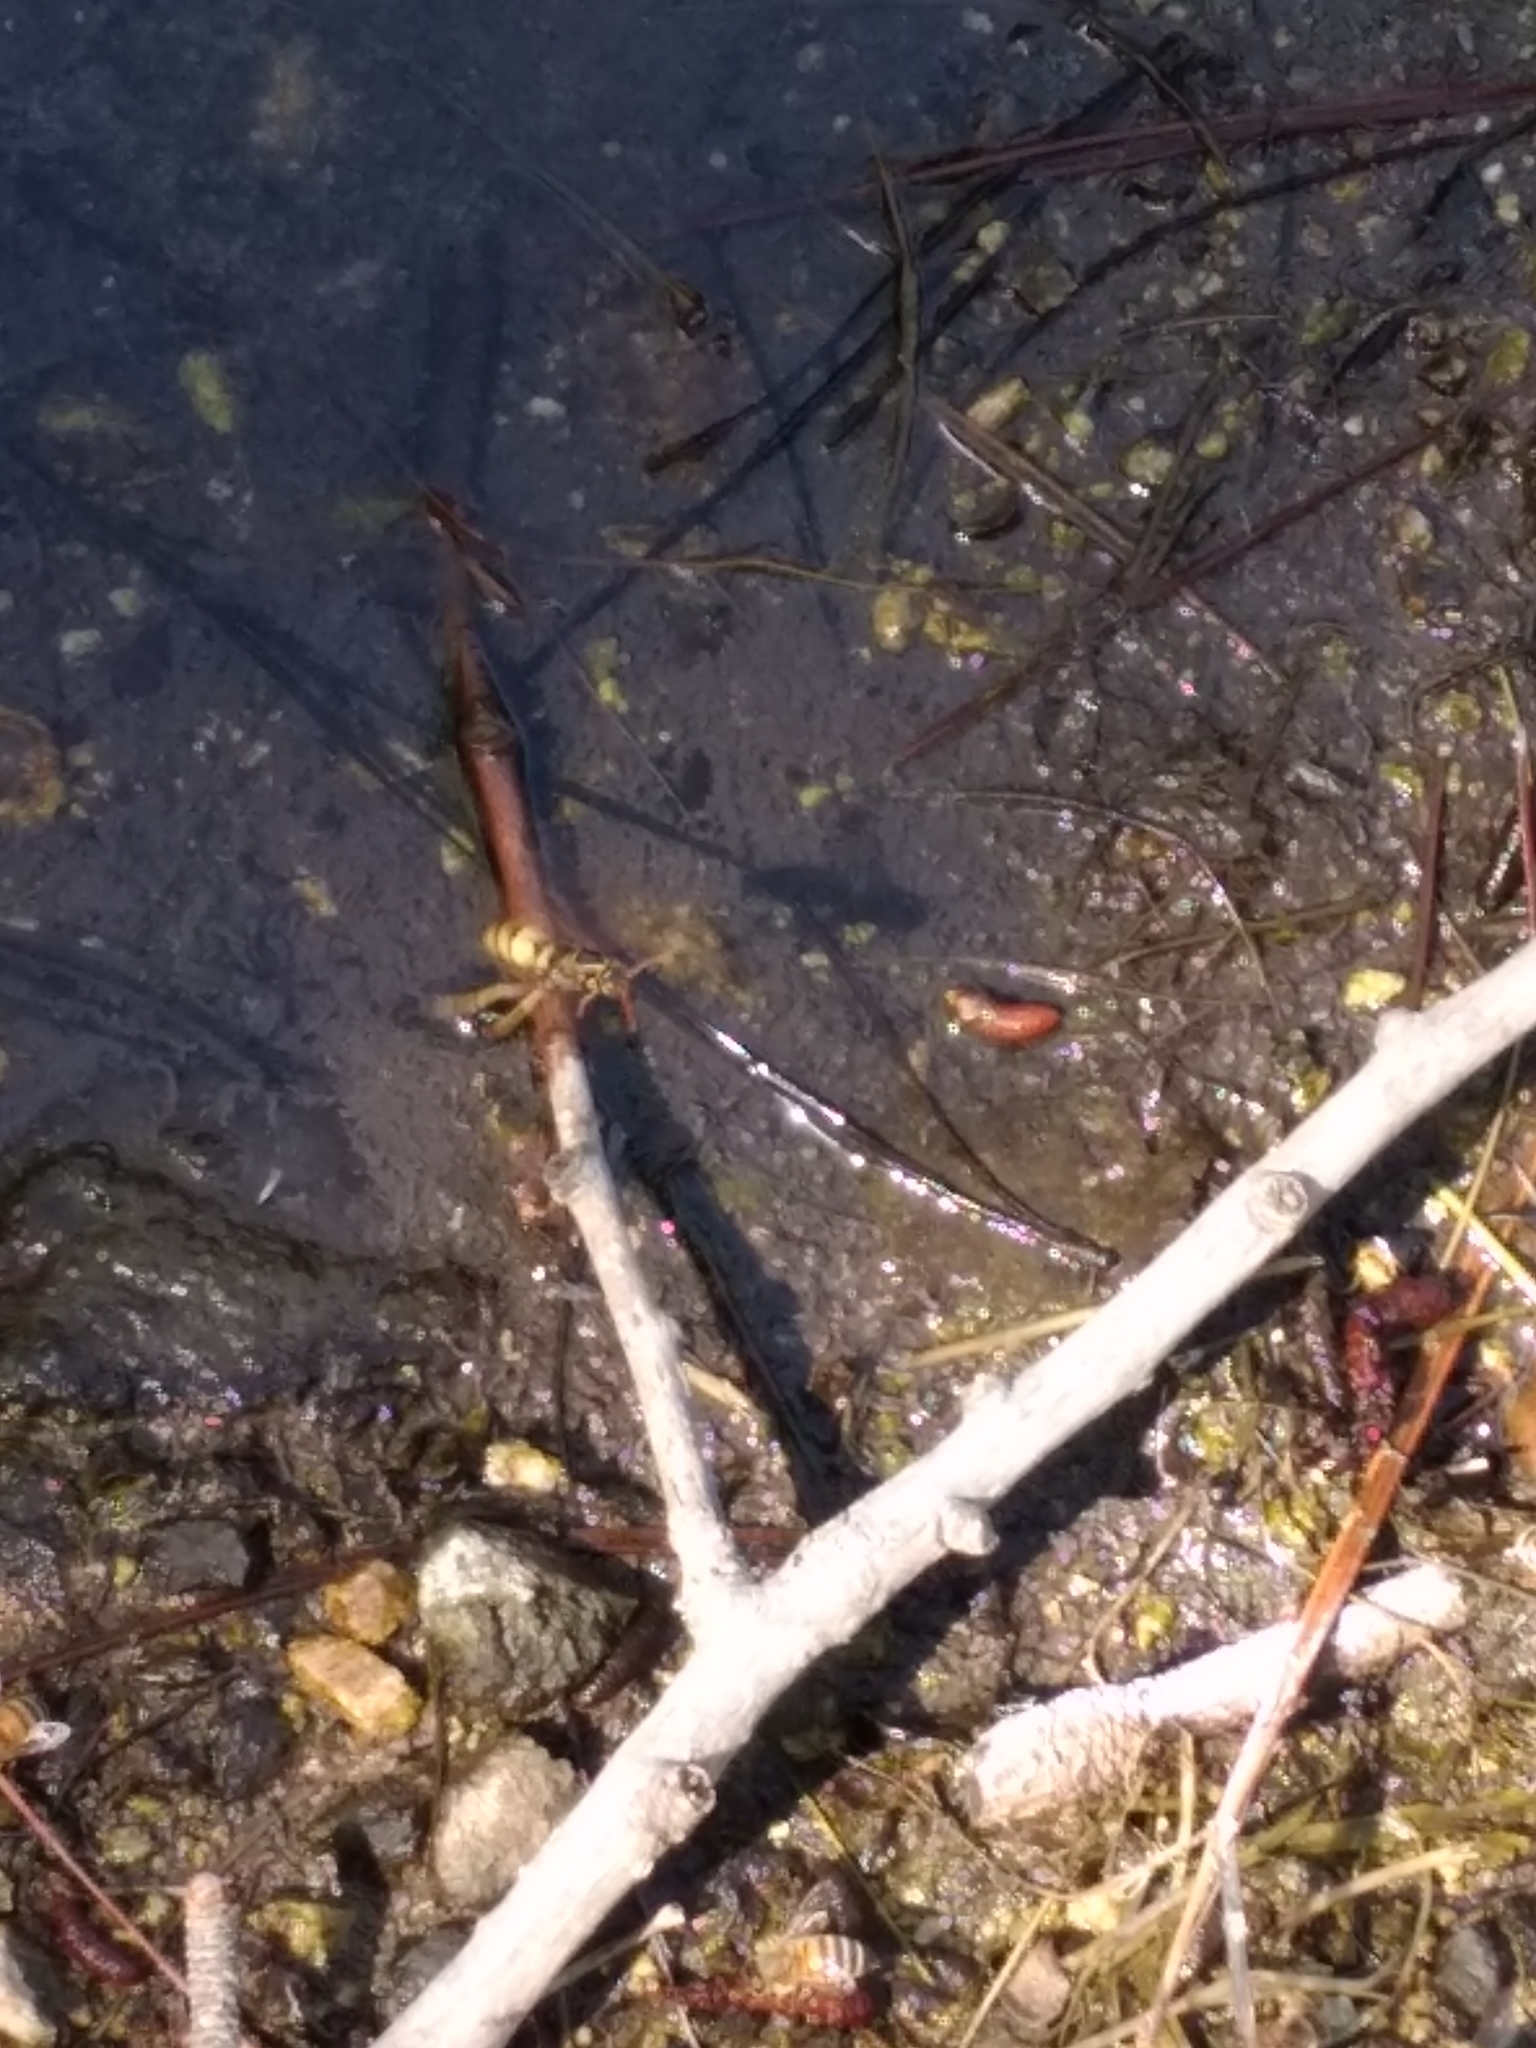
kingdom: Animalia
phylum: Arthropoda
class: Insecta
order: Hymenoptera
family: Eumenidae
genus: Polistes
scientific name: Polistes aurifer
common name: Paper wasp
